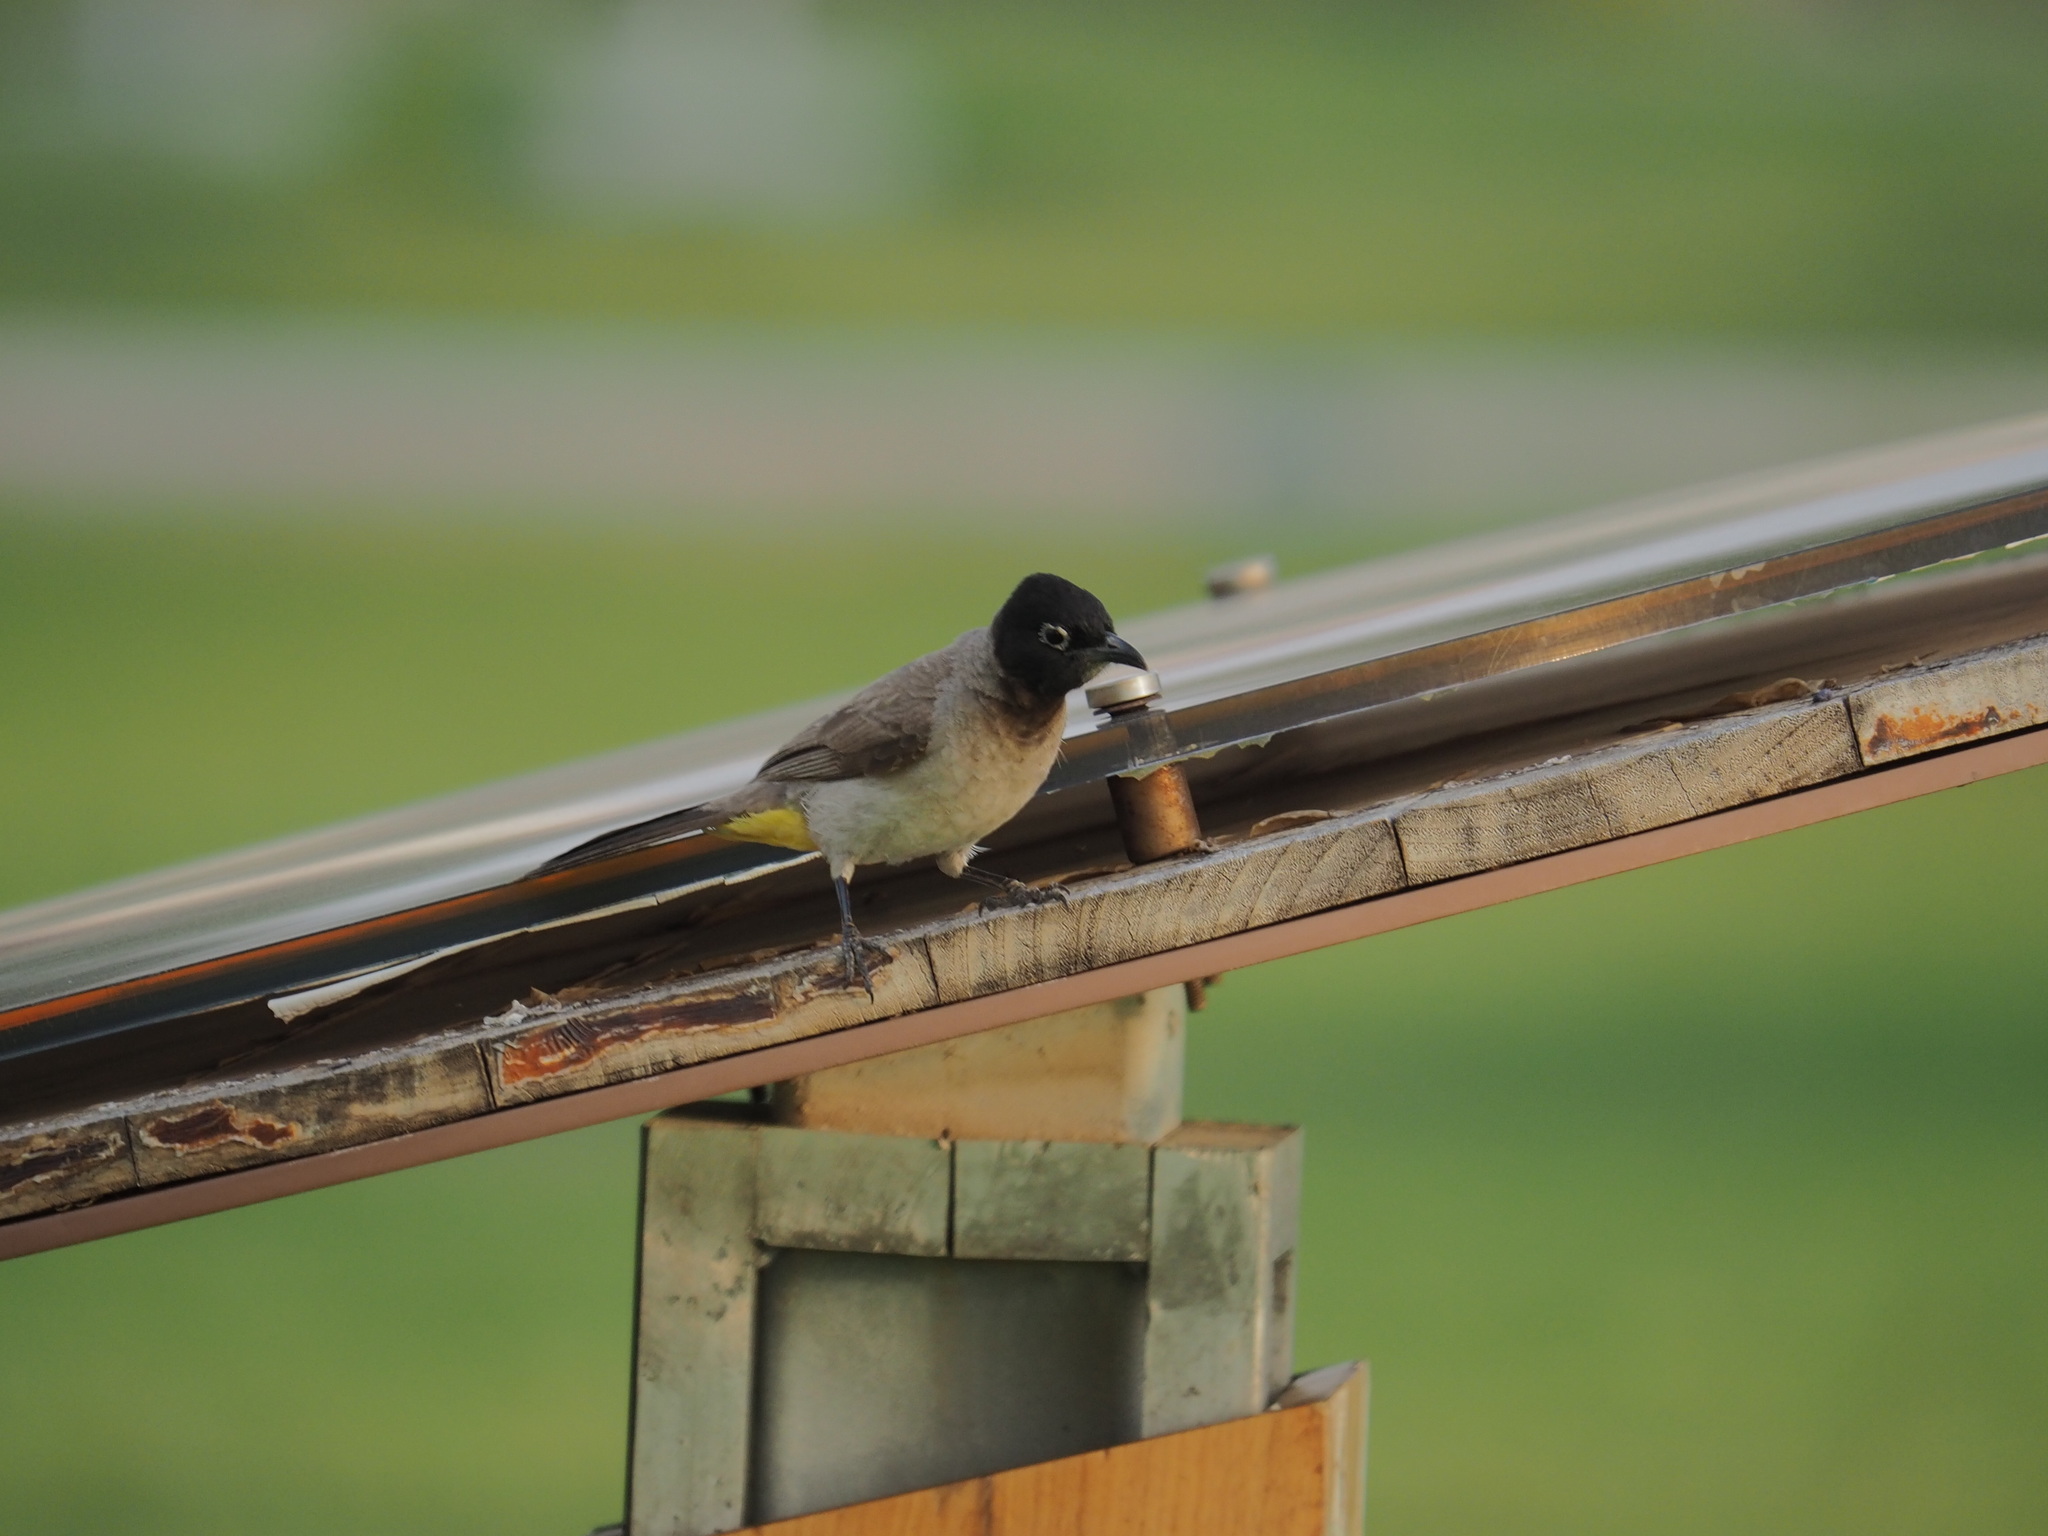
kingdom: Animalia
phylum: Chordata
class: Aves
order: Passeriformes
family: Pycnonotidae
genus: Pycnonotus
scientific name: Pycnonotus xanthopygos
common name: White-spectacled bulbul
